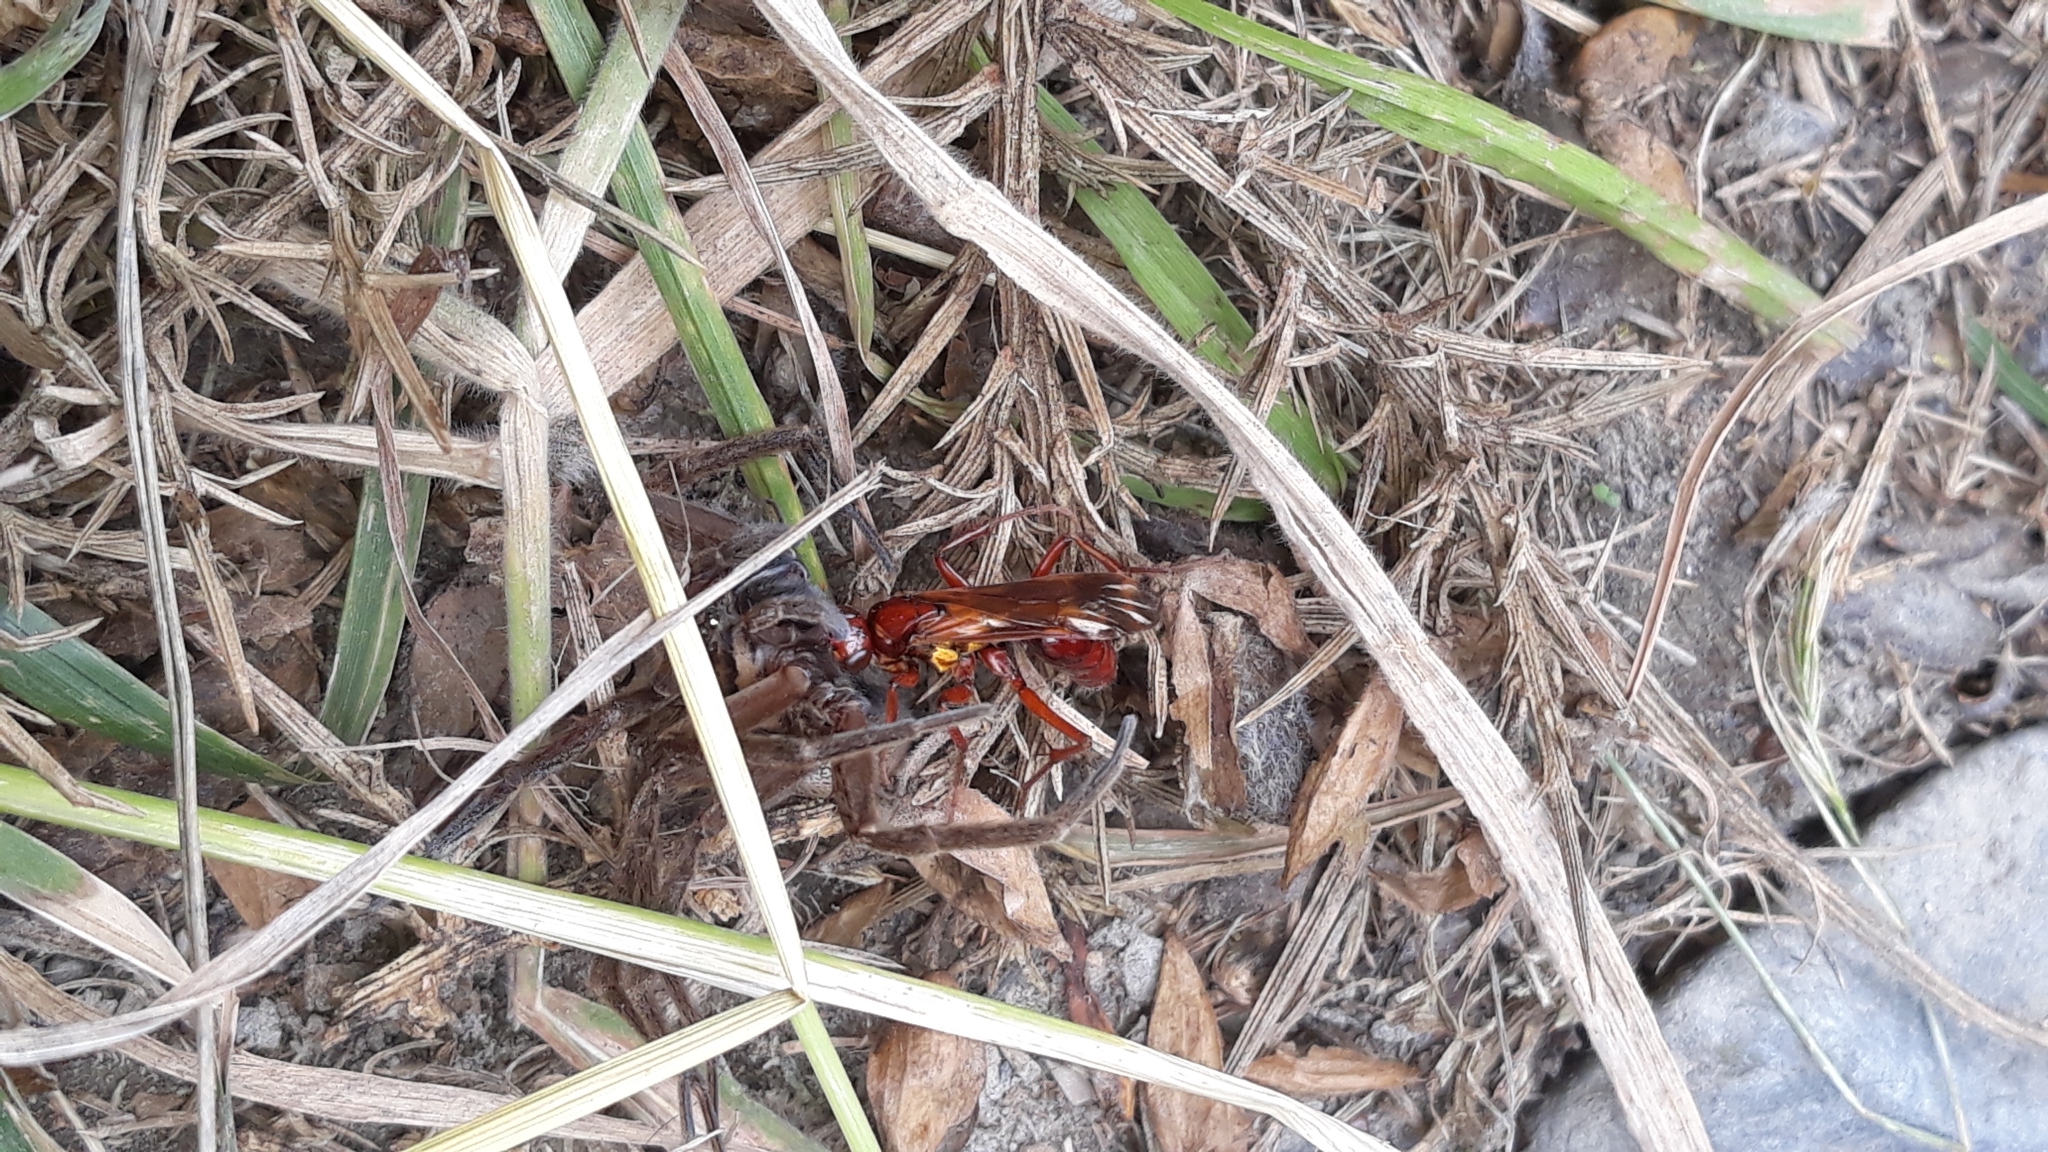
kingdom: Animalia
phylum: Arthropoda
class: Insecta
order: Hymenoptera
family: Pompilidae
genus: Sphictostethus
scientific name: Sphictostethus nitidus
